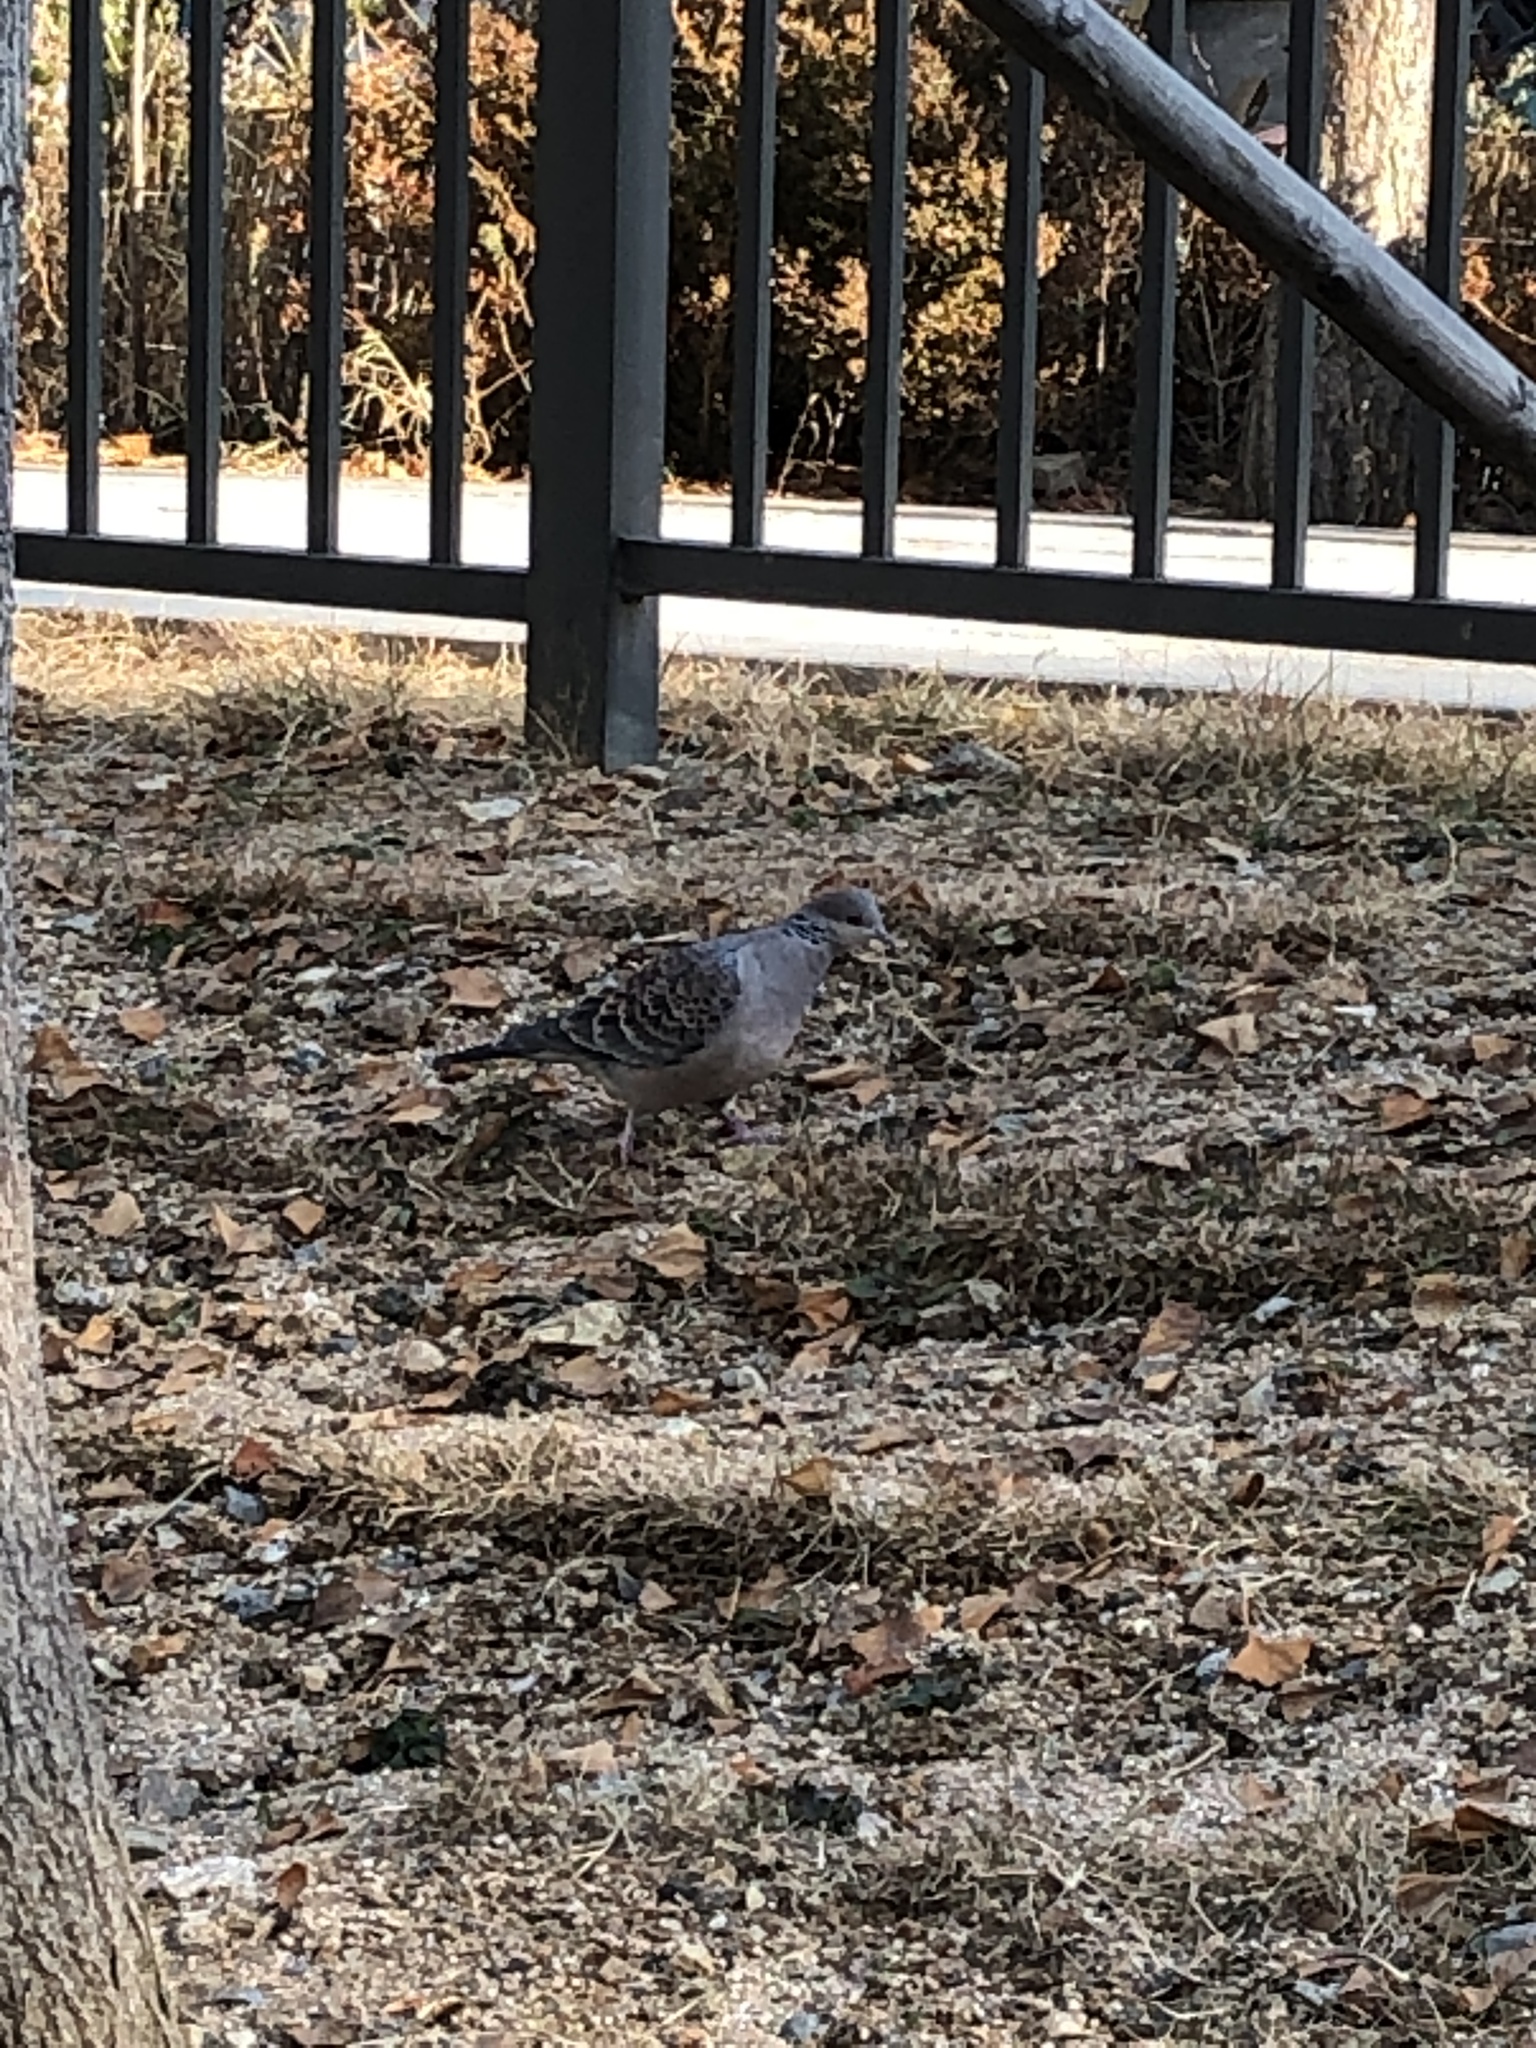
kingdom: Animalia
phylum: Chordata
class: Aves
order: Columbiformes
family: Columbidae
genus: Streptopelia
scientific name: Streptopelia orientalis
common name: Oriental turtle dove
